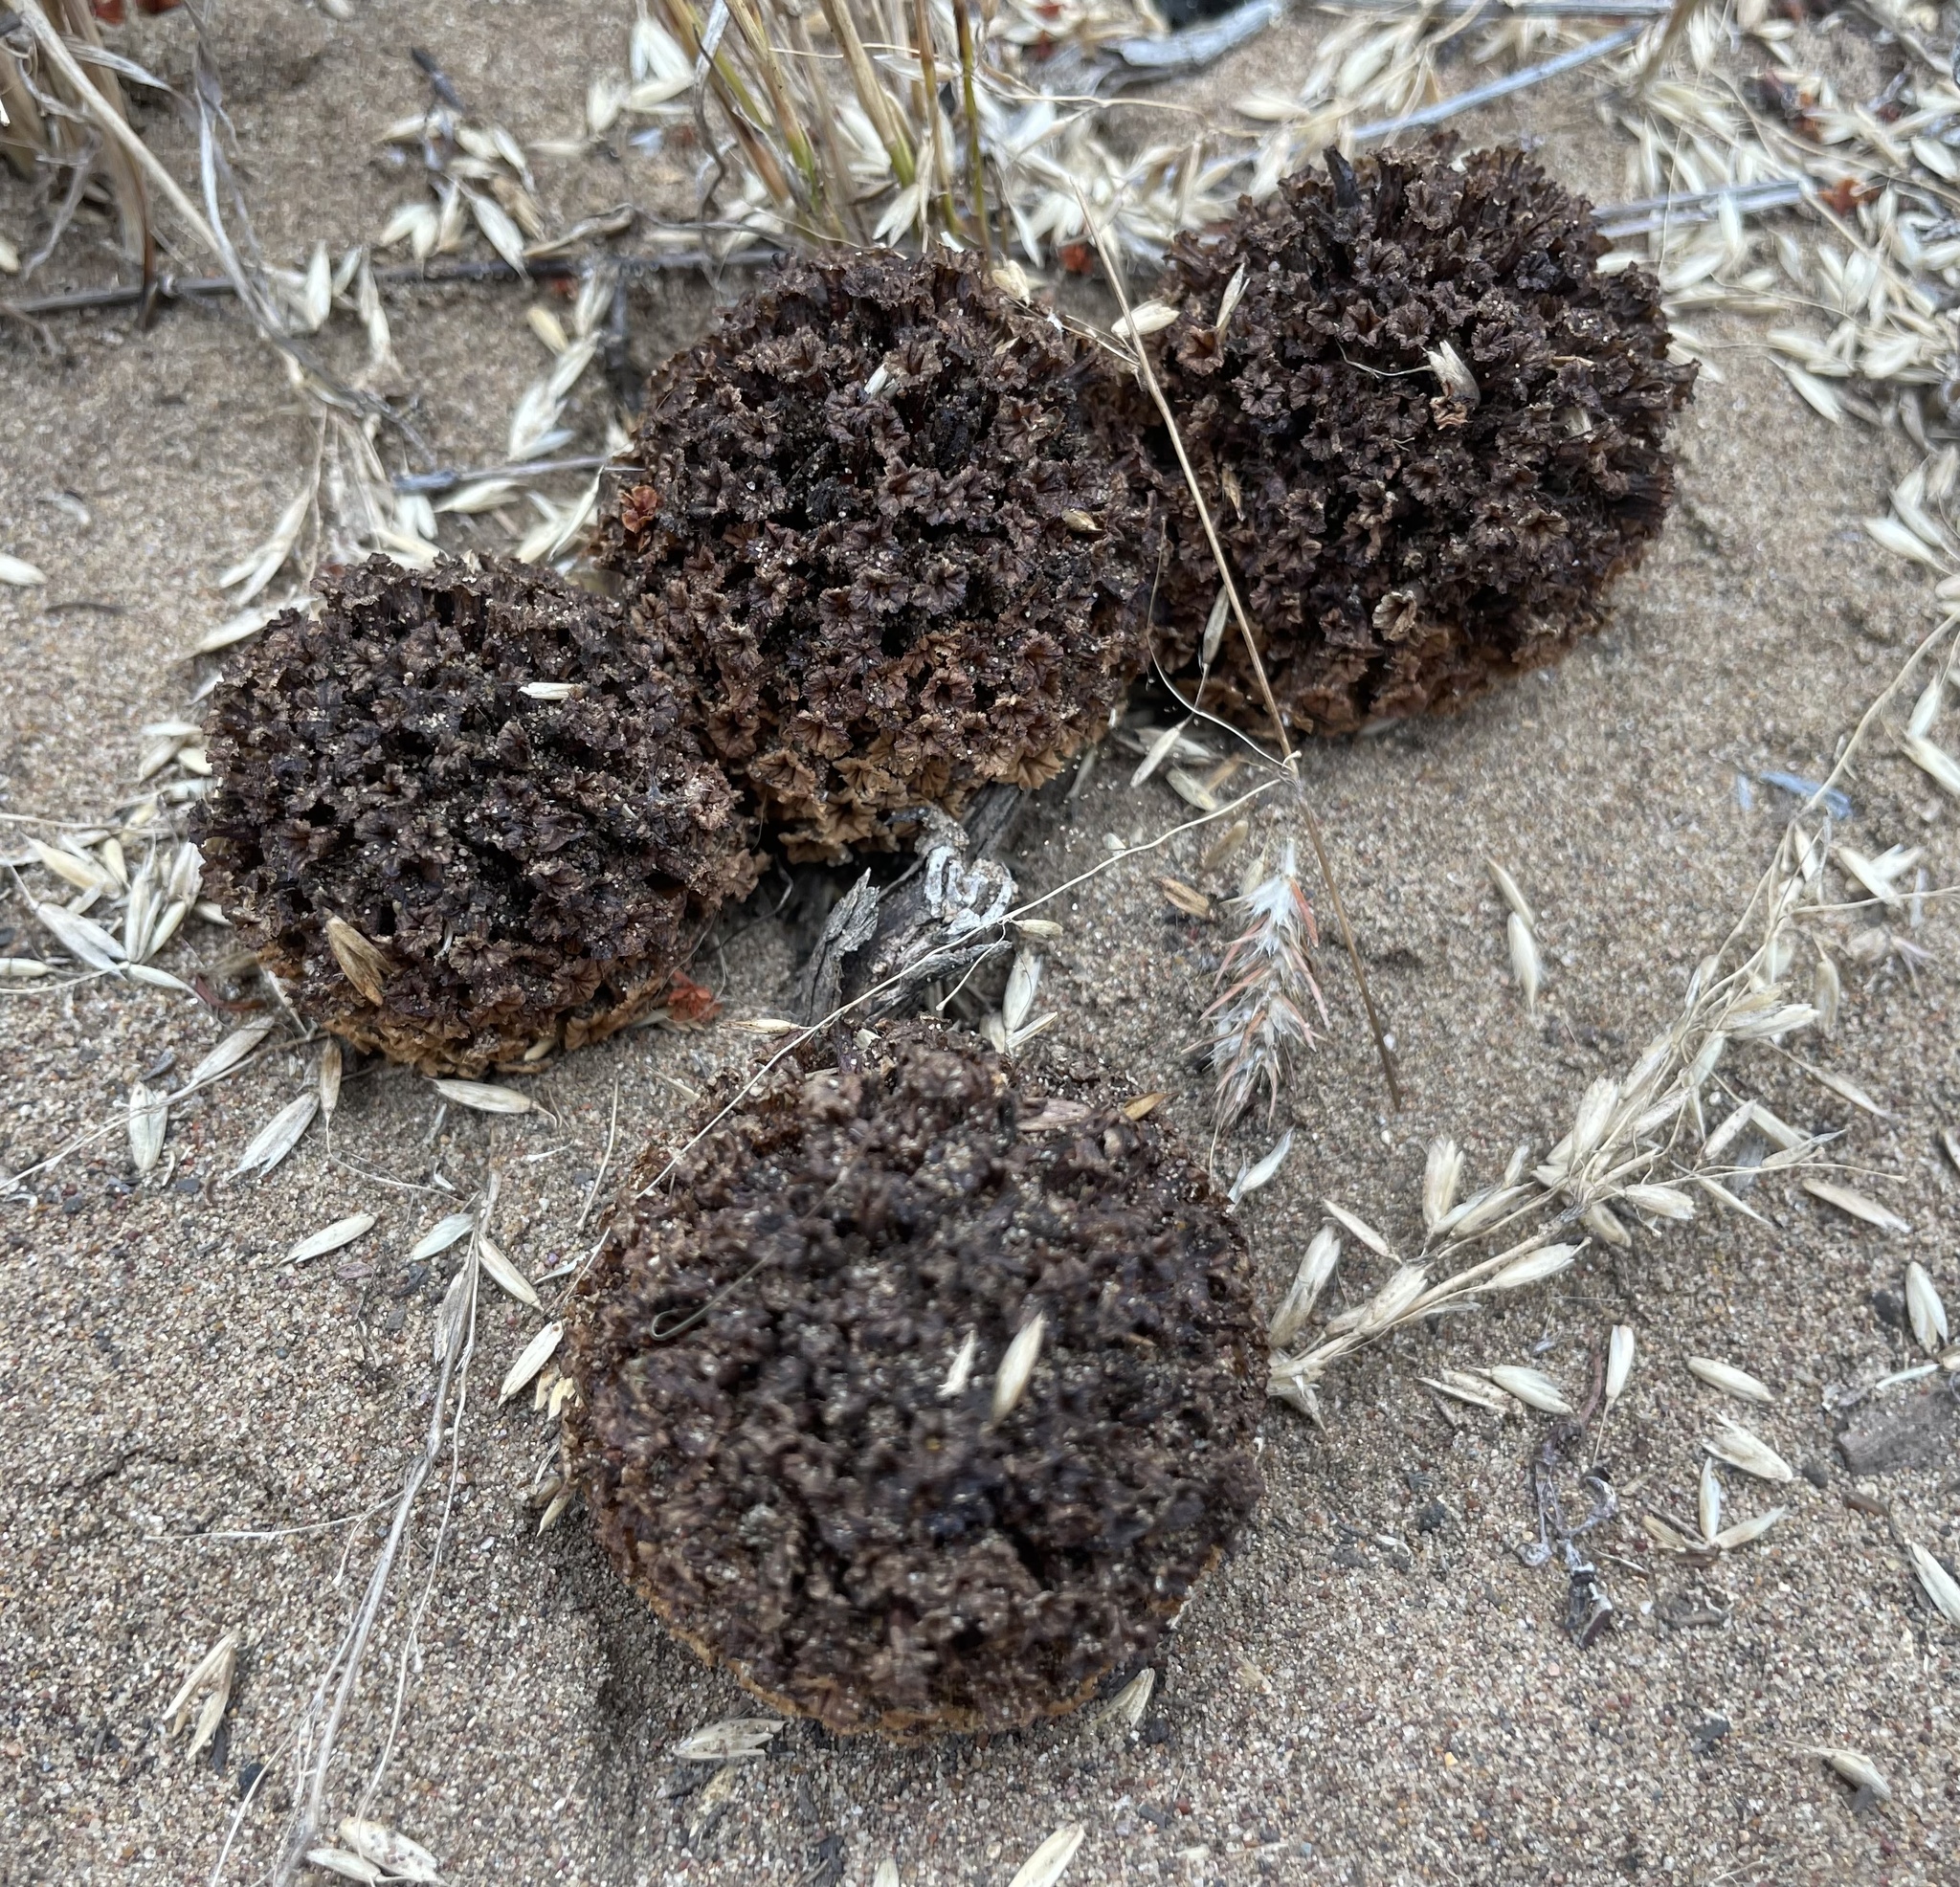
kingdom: Plantae
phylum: Tracheophyta
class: Magnoliopsida
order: Boraginales
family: Lennoaceae
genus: Pholisma
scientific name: Pholisma arenarium
